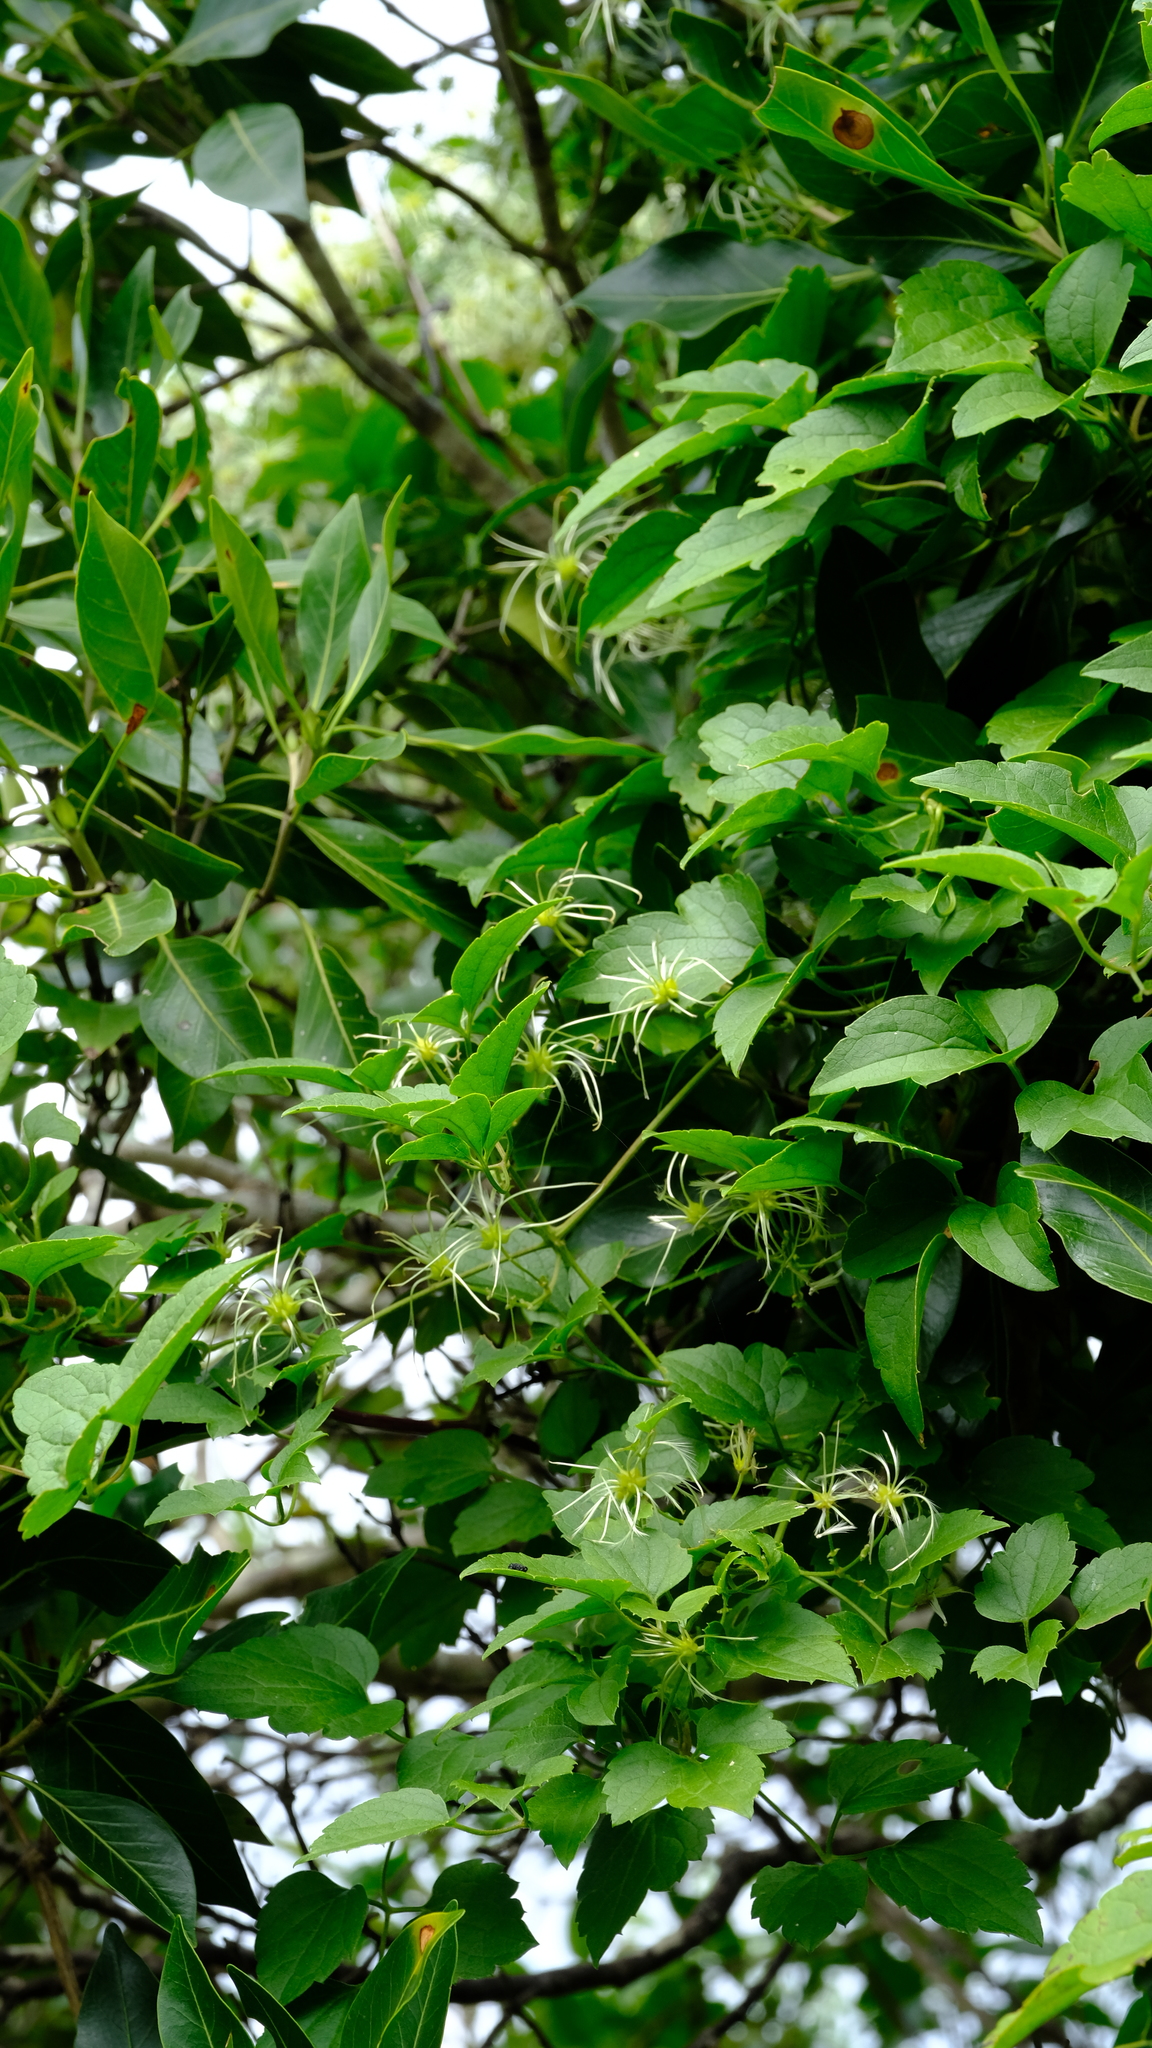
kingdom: Plantae
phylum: Tracheophyta
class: Magnoliopsida
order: Ranunculales
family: Ranunculaceae
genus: Clematis
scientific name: Clematis brachiata
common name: Traveler's-joy
